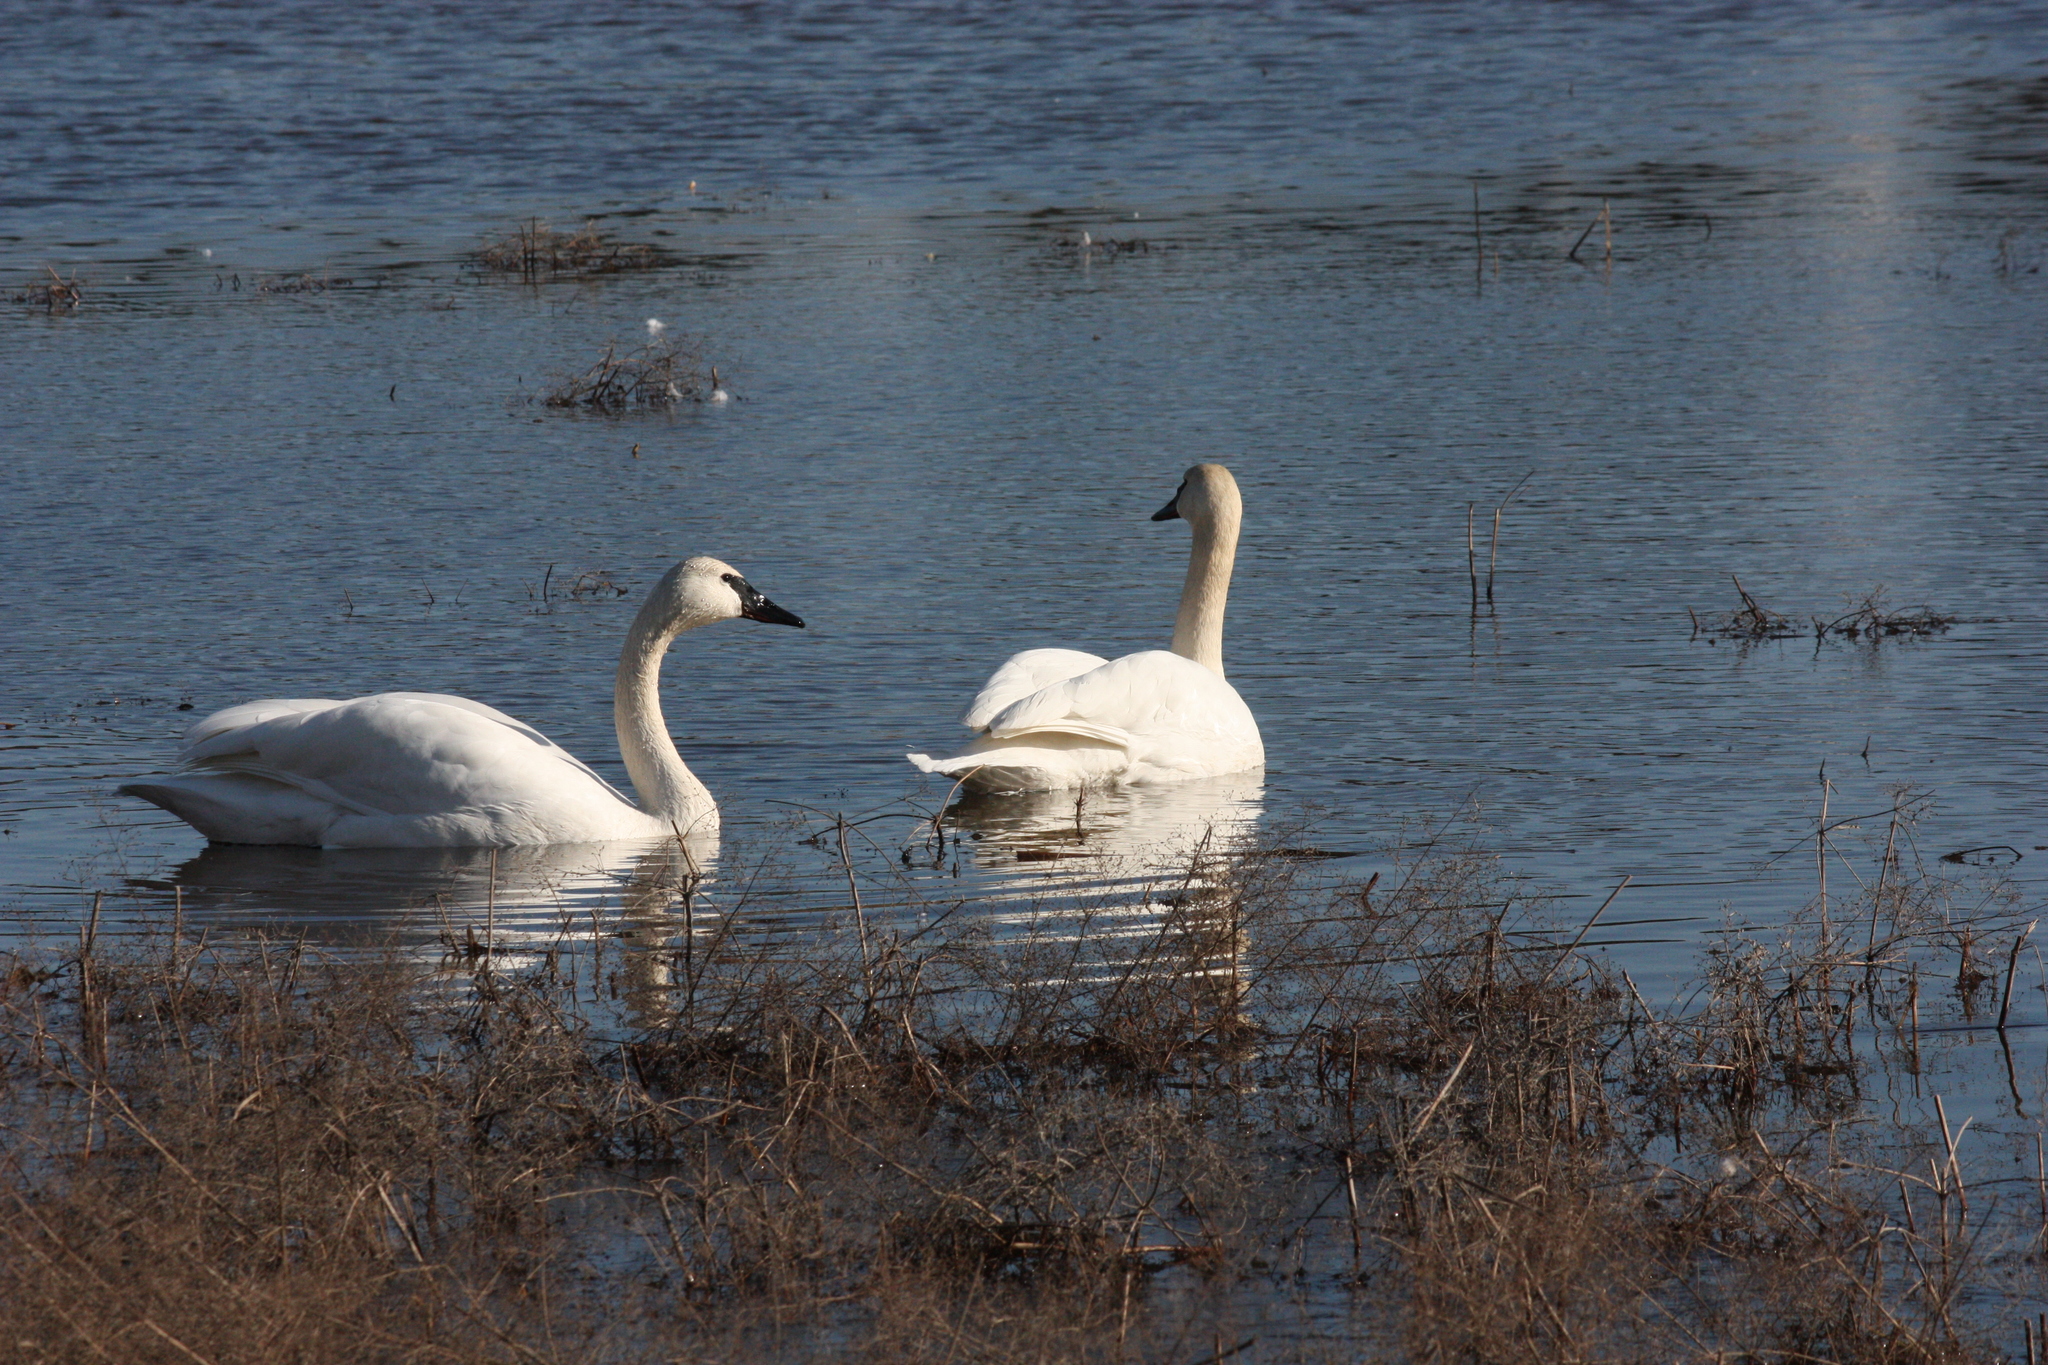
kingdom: Animalia
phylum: Chordata
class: Aves
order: Anseriformes
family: Anatidae
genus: Cygnus
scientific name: Cygnus buccinator
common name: Trumpeter swan
